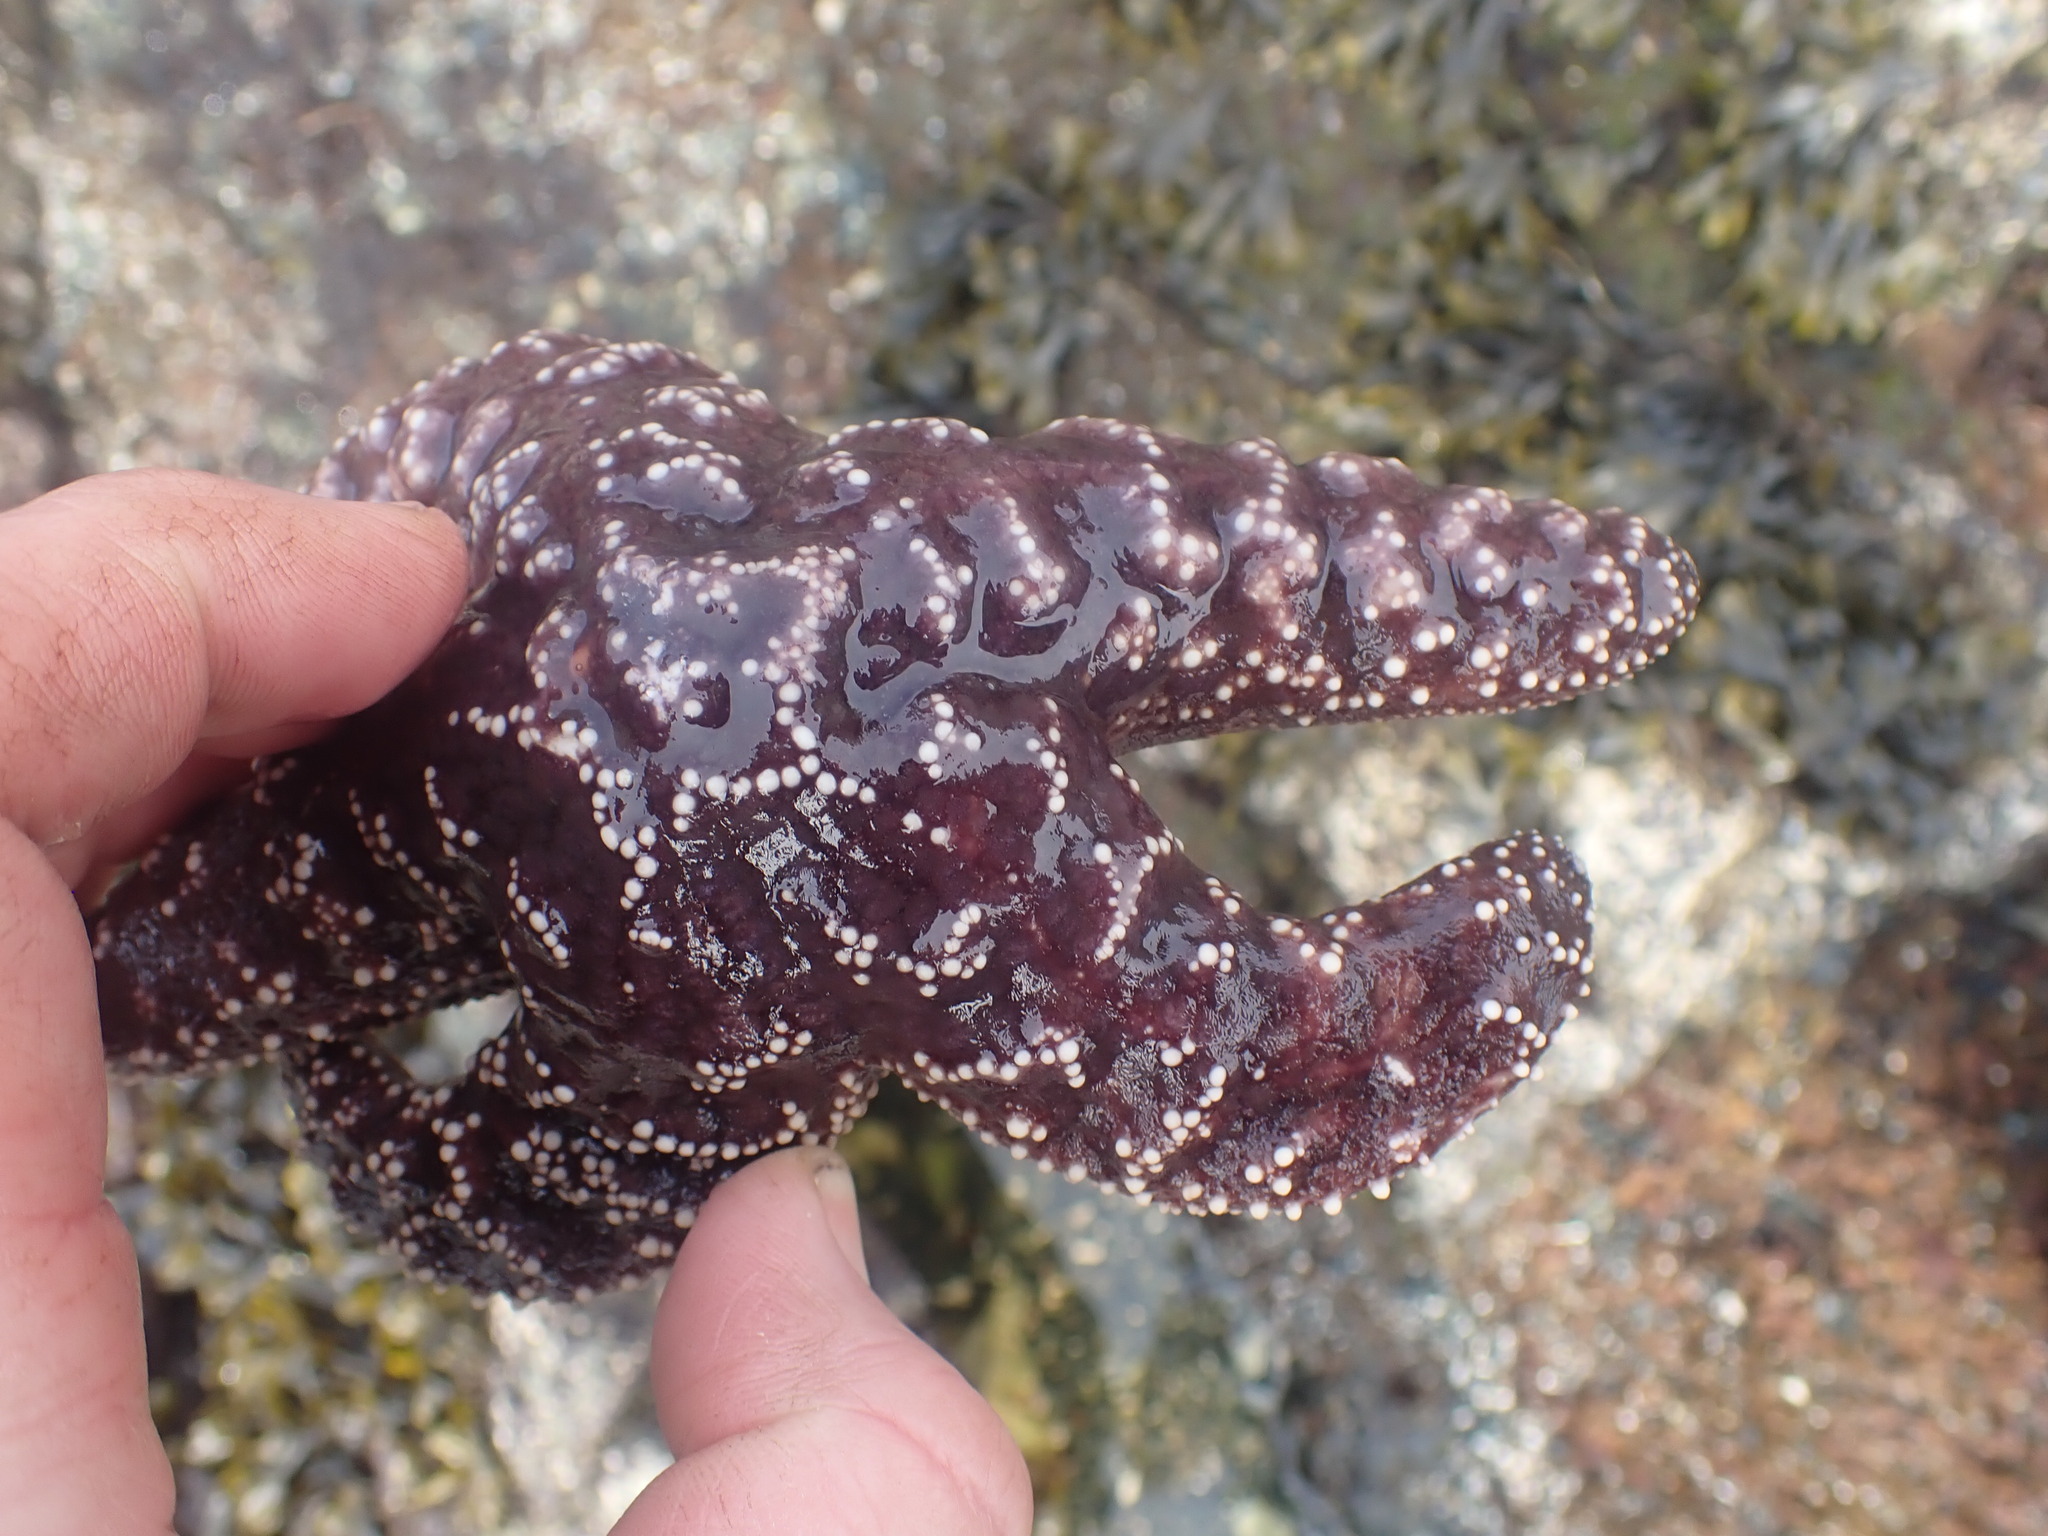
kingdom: Animalia
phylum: Echinodermata
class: Asteroidea
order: Forcipulatida
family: Asteriidae
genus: Pisaster
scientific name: Pisaster ochraceus
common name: Ochre stars
